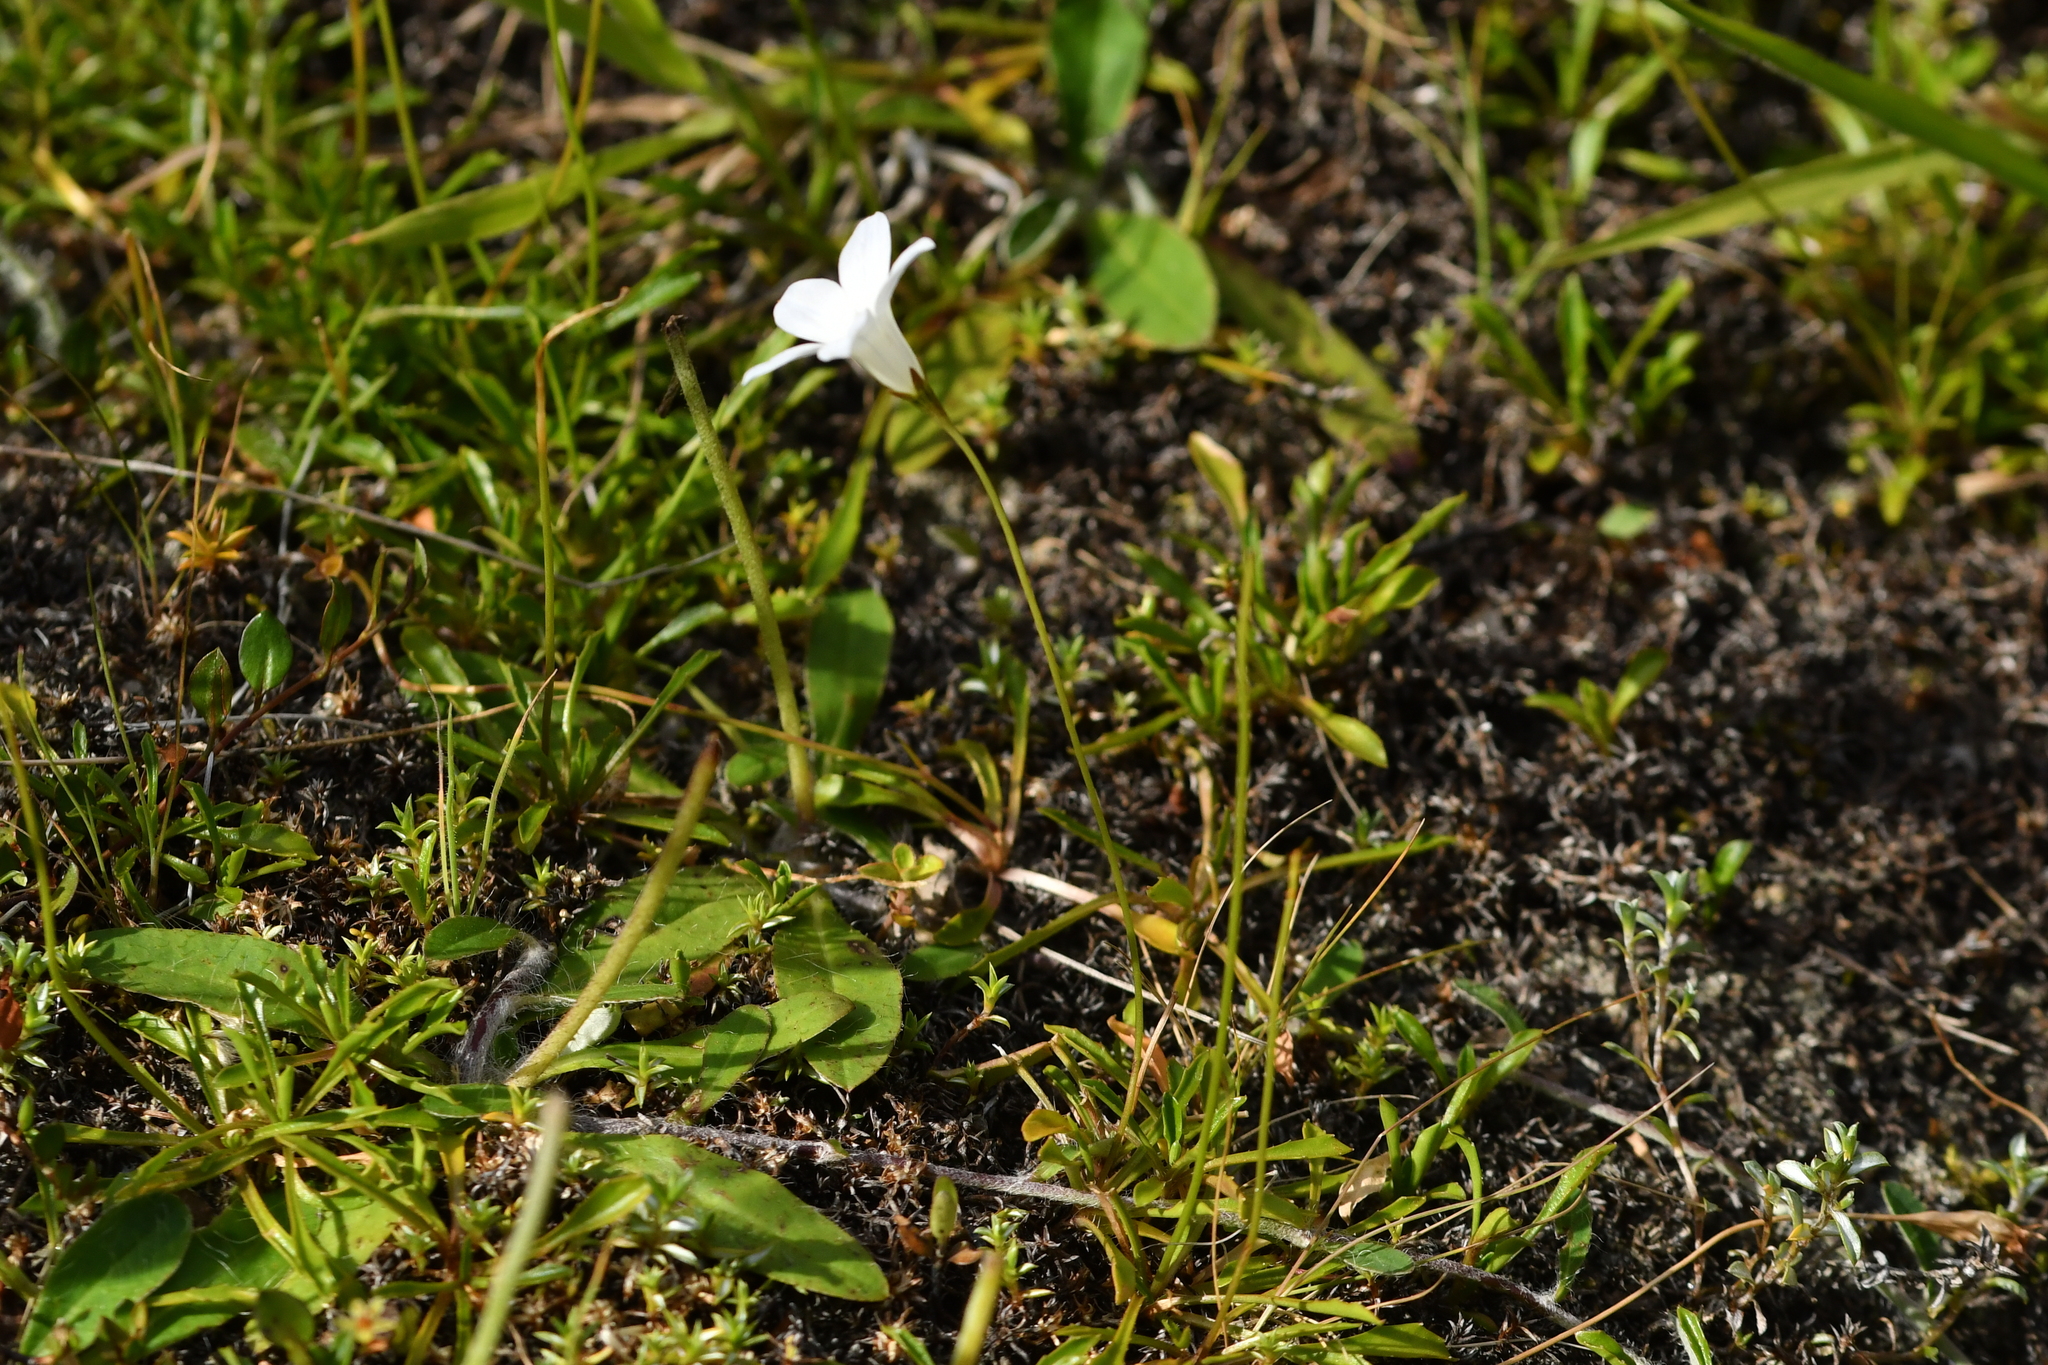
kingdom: Plantae
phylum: Tracheophyta
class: Magnoliopsida
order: Asterales
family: Campanulaceae
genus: Wahlenbergia
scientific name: Wahlenbergia albomarginata
